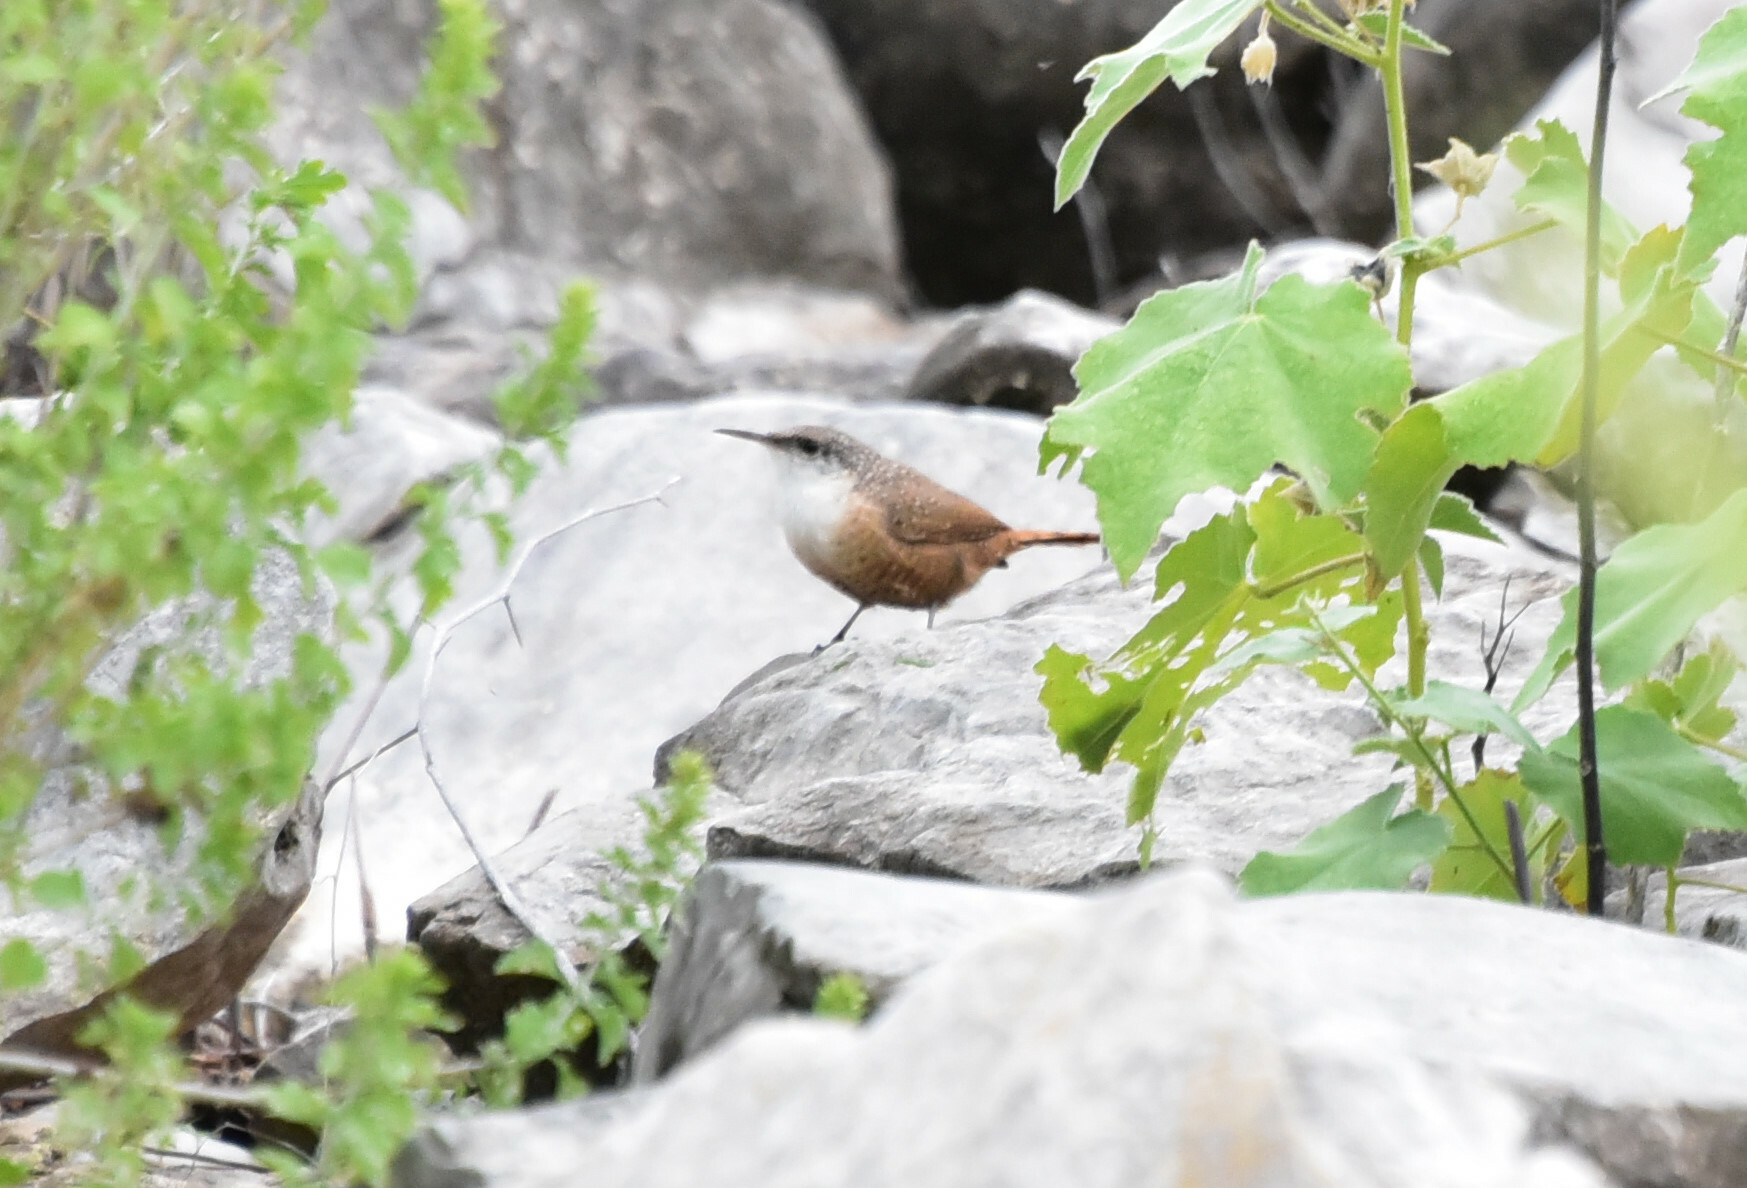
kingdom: Animalia
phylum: Chordata
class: Aves
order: Passeriformes
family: Troglodytidae
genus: Catherpes
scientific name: Catherpes mexicanus
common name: Canyon wren
